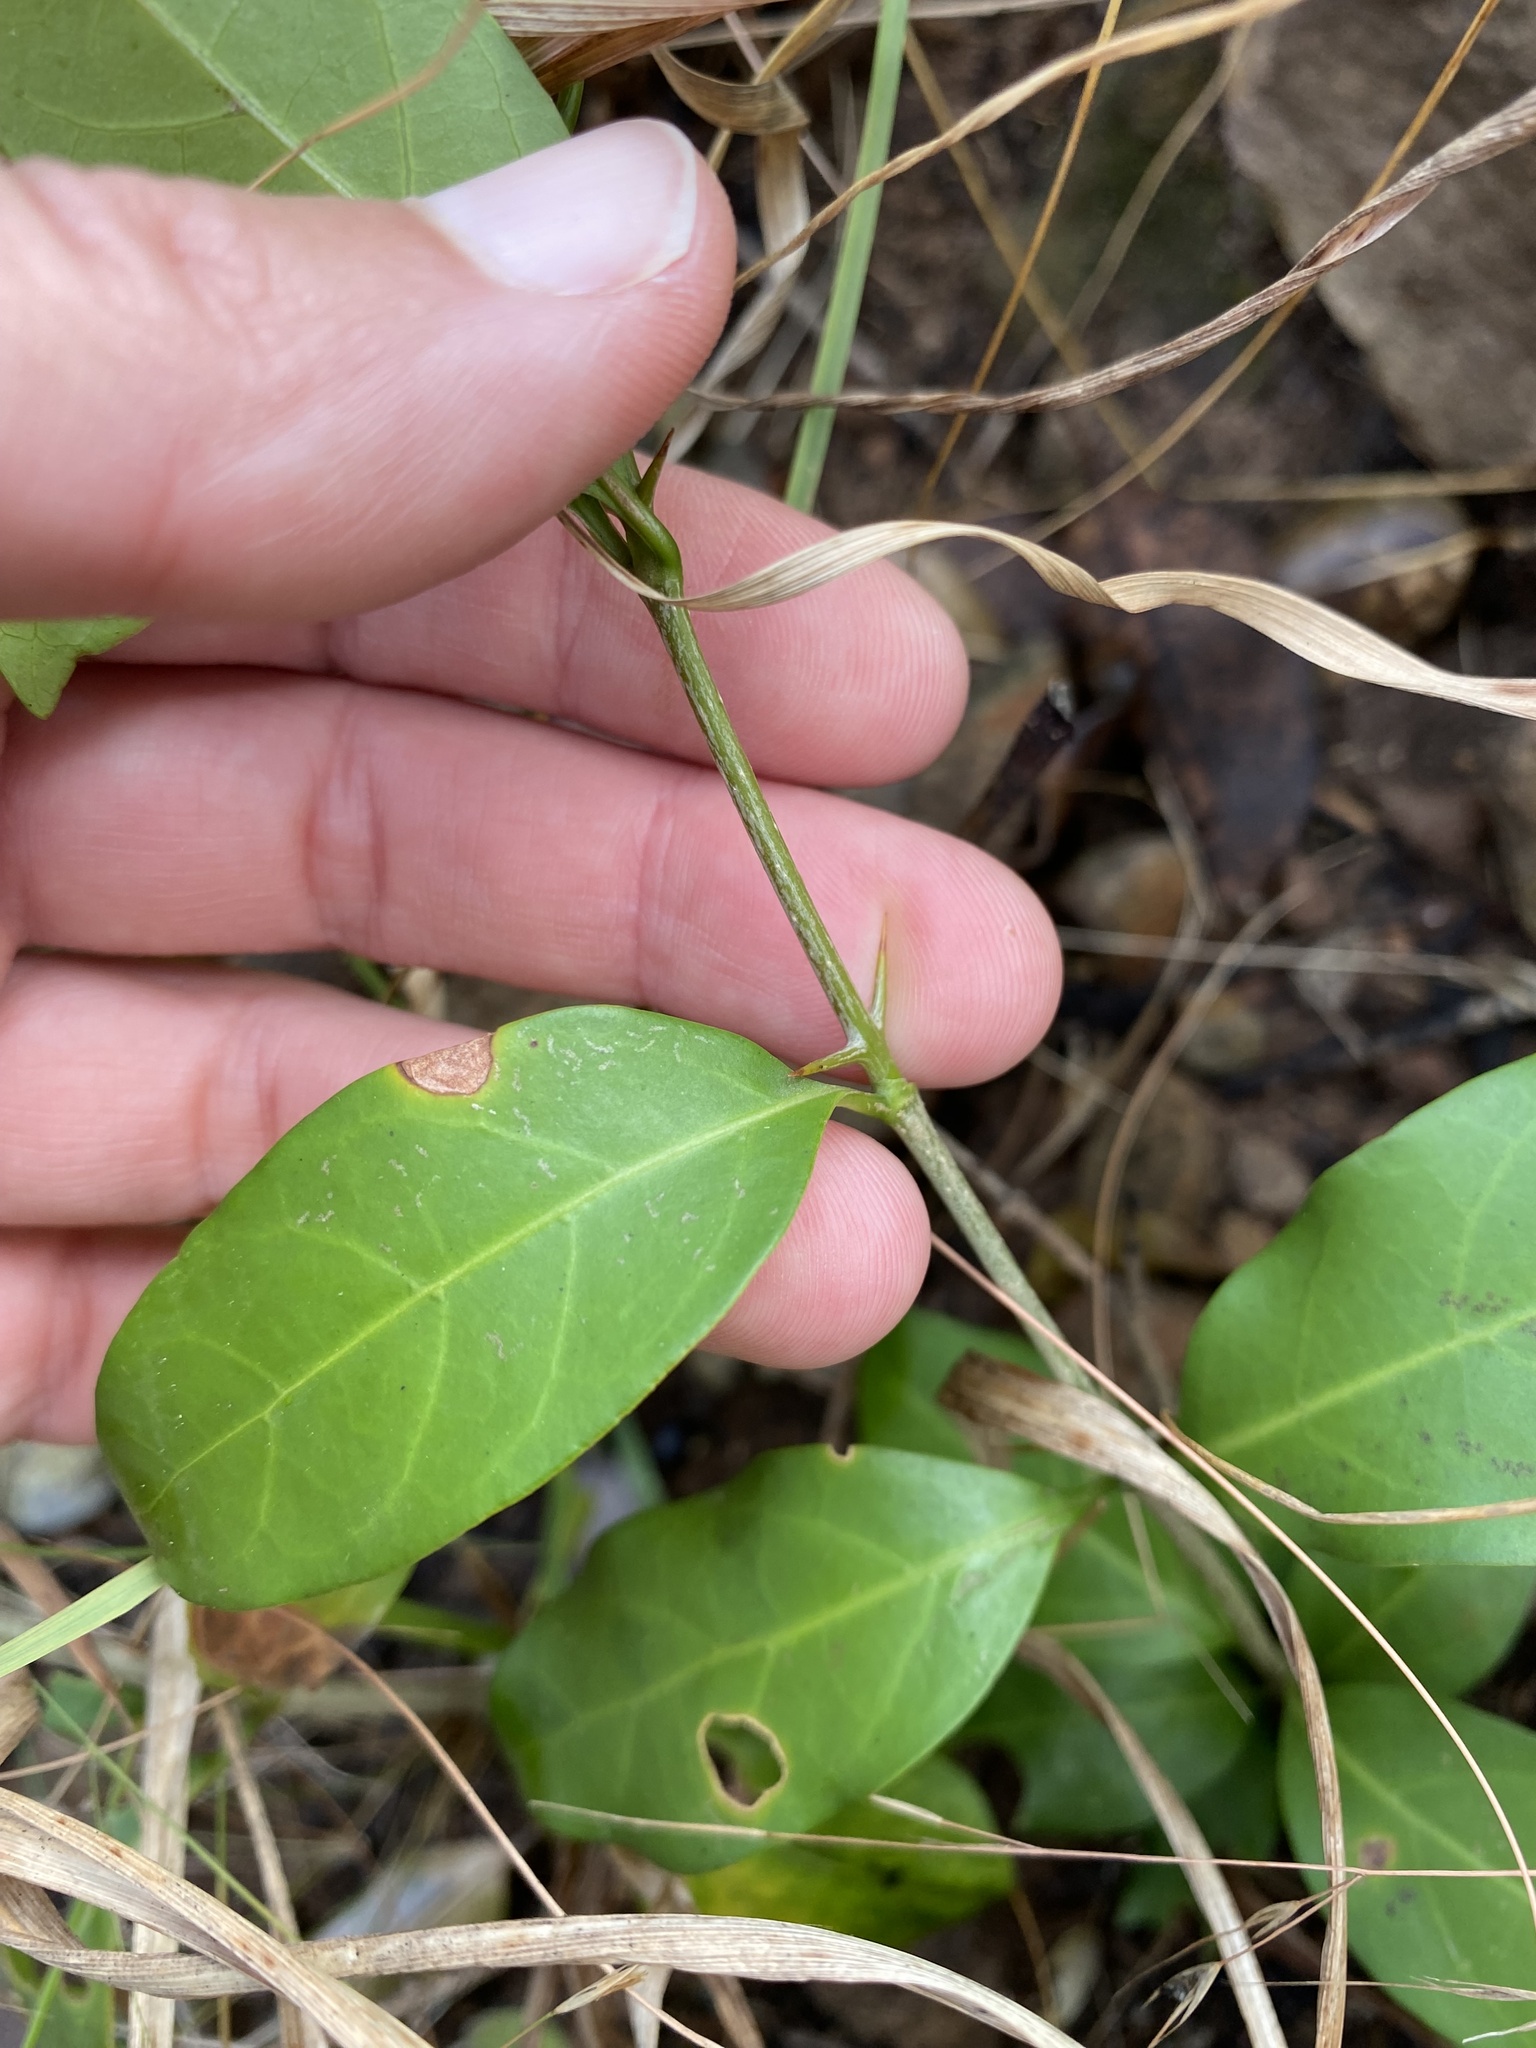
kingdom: Plantae
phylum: Tracheophyta
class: Magnoliopsida
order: Gentianales
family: Rubiaceae
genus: Canthium
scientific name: Canthium inerme
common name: Unarmed turkey-berry
